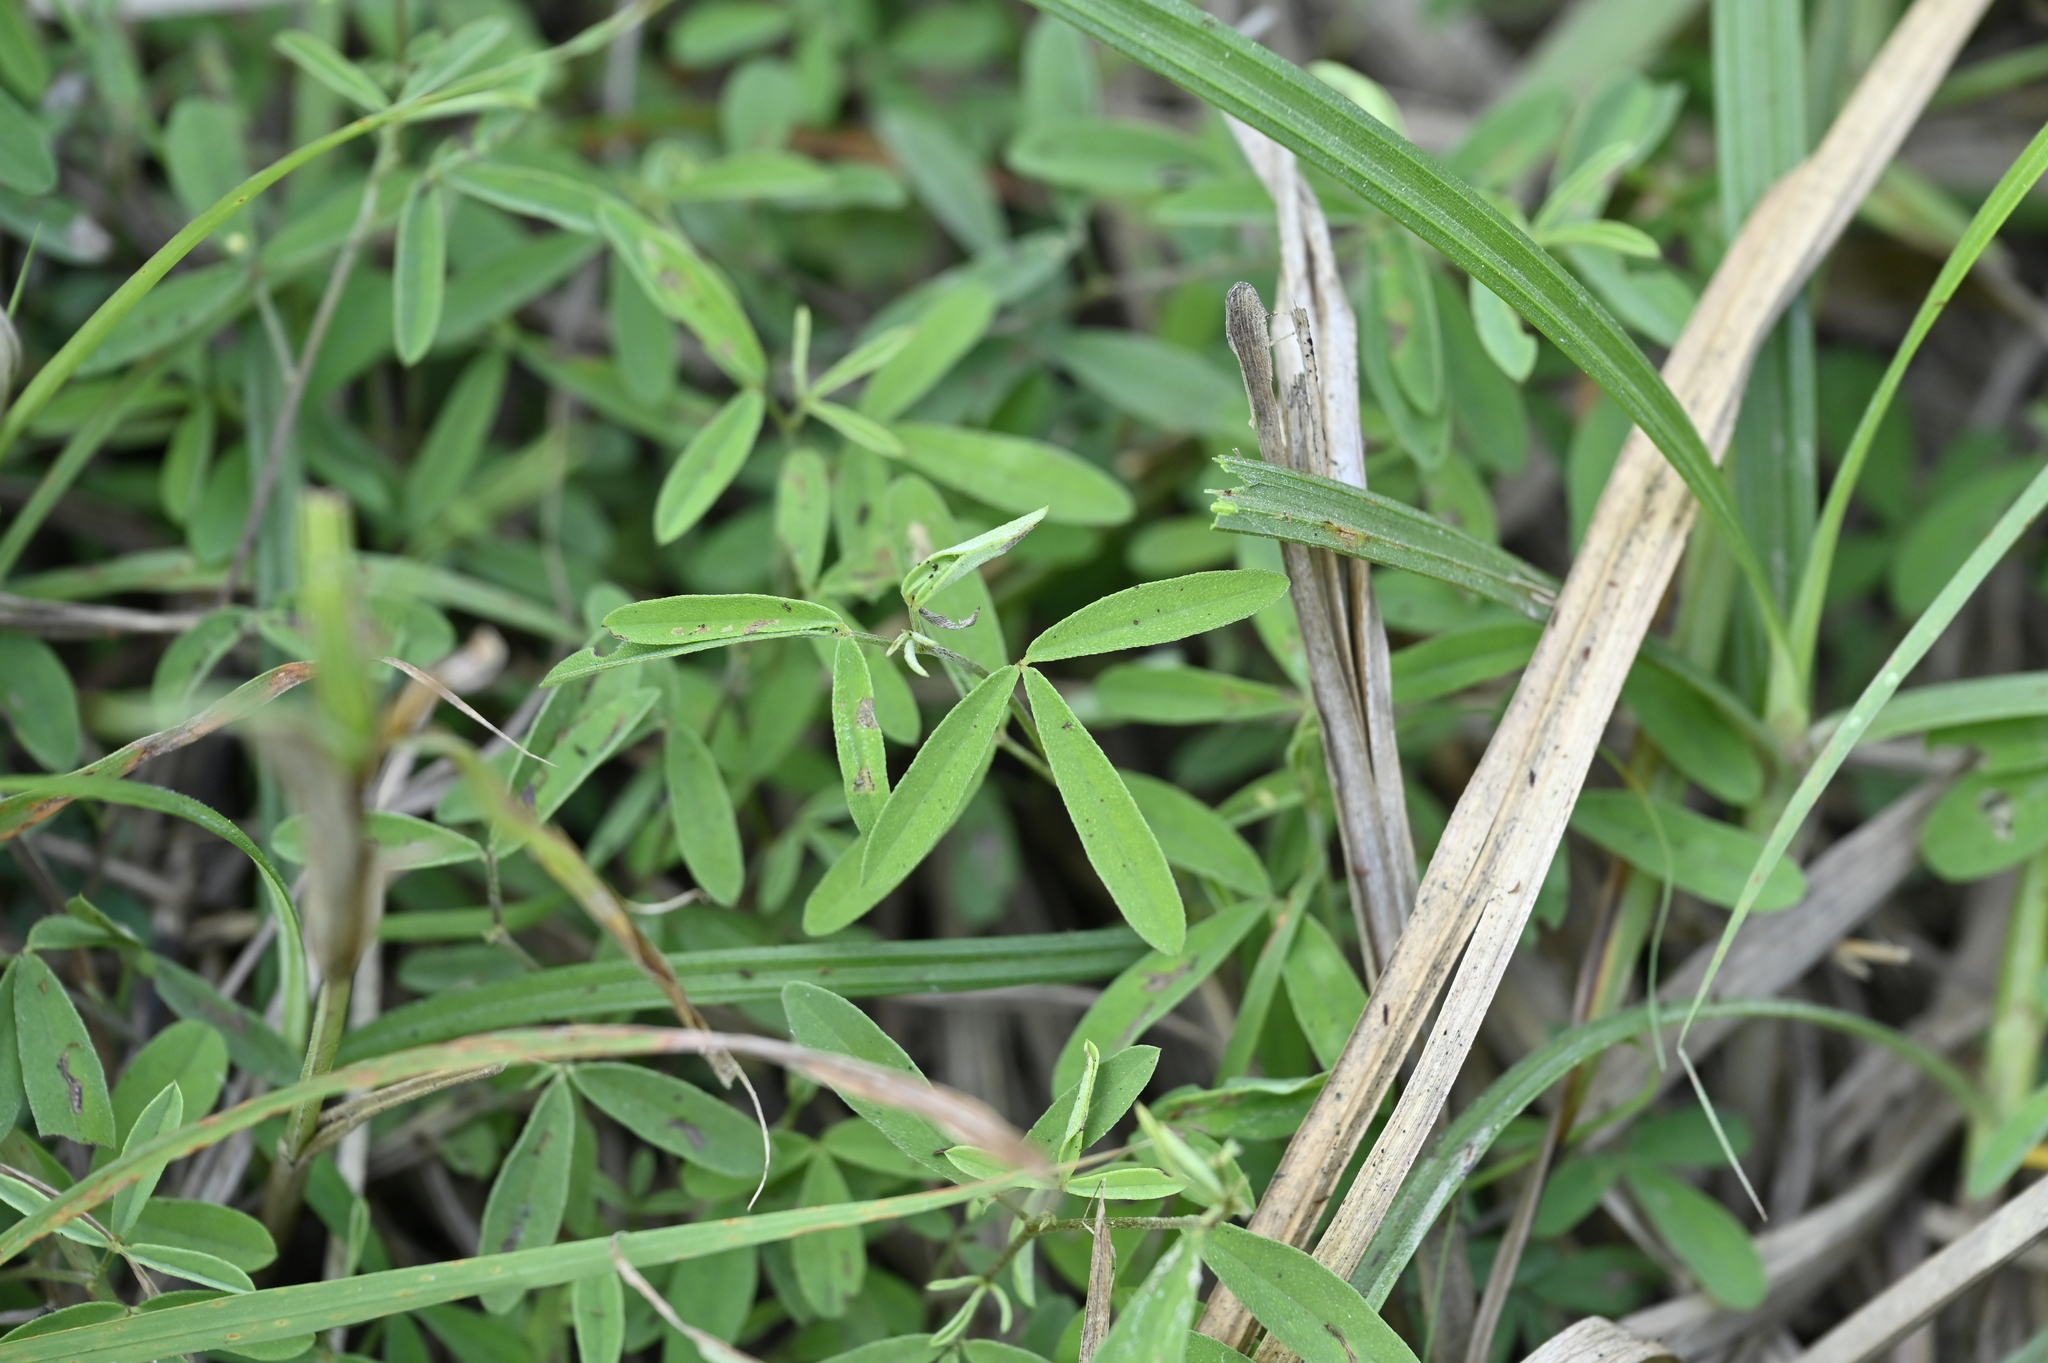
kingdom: Plantae
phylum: Tracheophyta
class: Magnoliopsida
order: Fabales
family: Fabaceae
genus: Indigofera
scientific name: Indigofera trifoliata
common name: Threeleaf indigo
